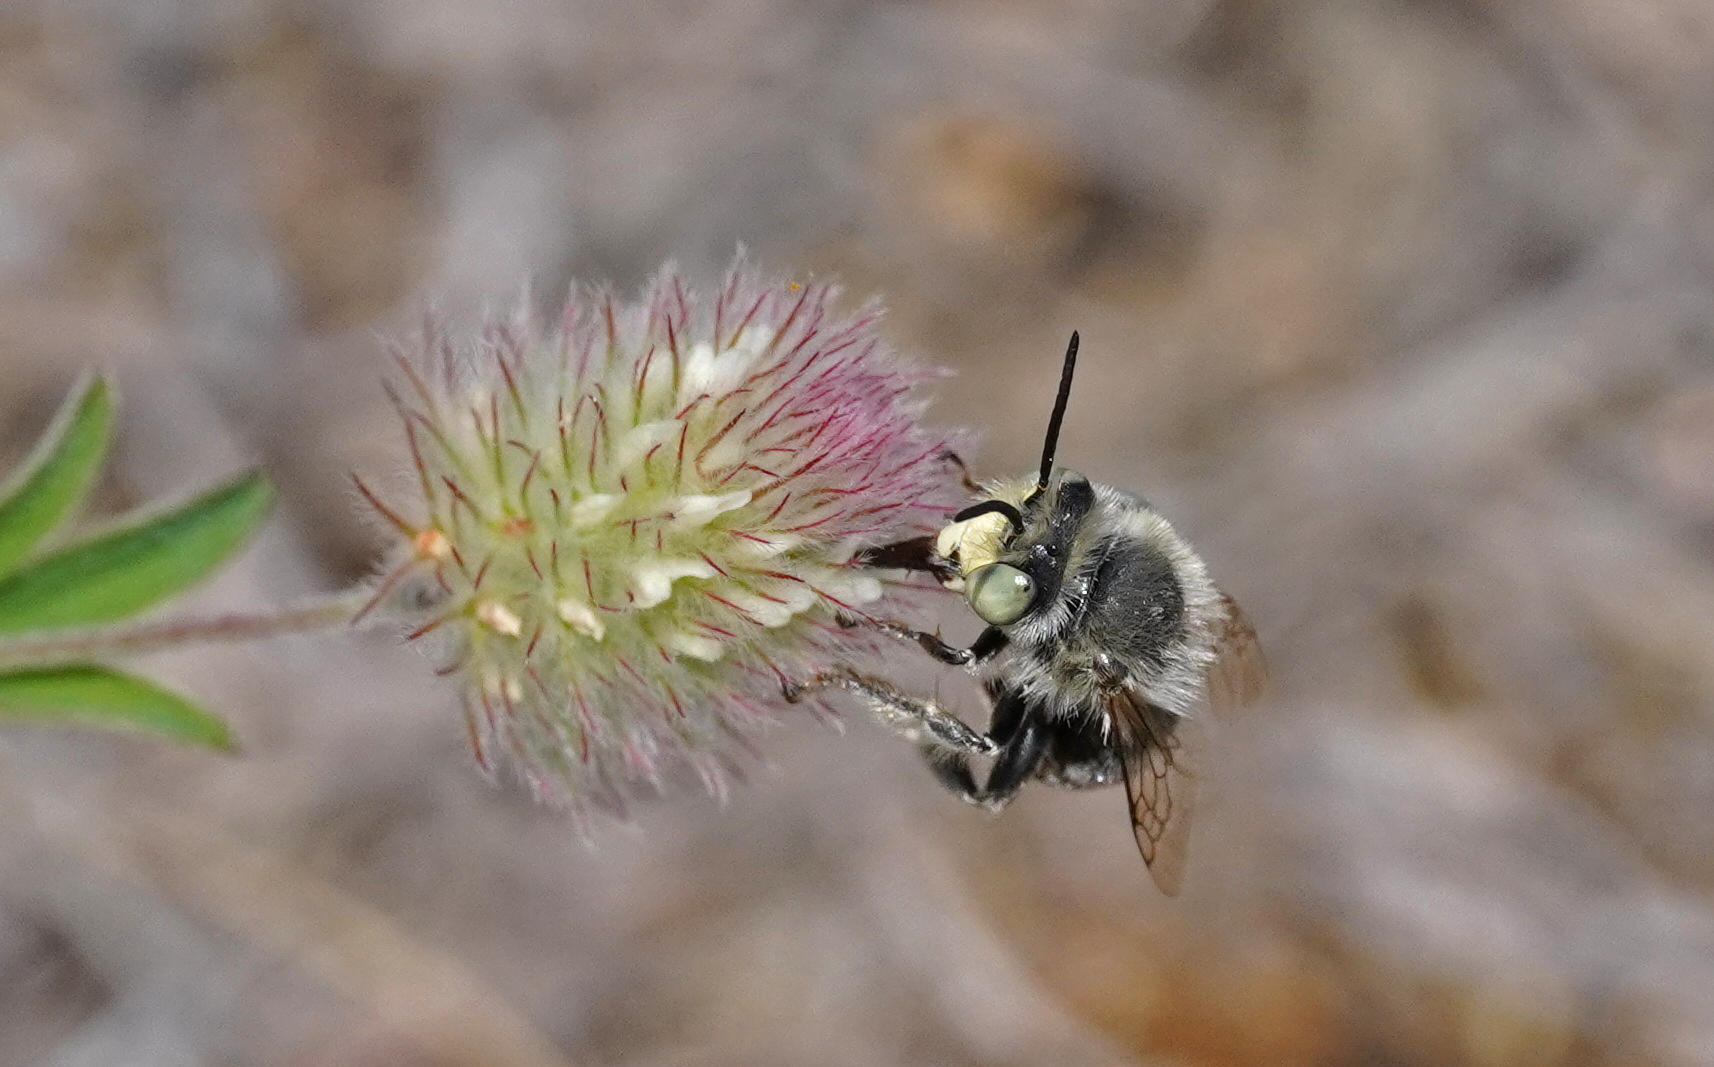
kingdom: Animalia
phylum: Arthropoda
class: Insecta
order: Hymenoptera
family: Apidae
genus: Anthophora
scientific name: Anthophora bimaculata
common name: Green-eyed flower bee
